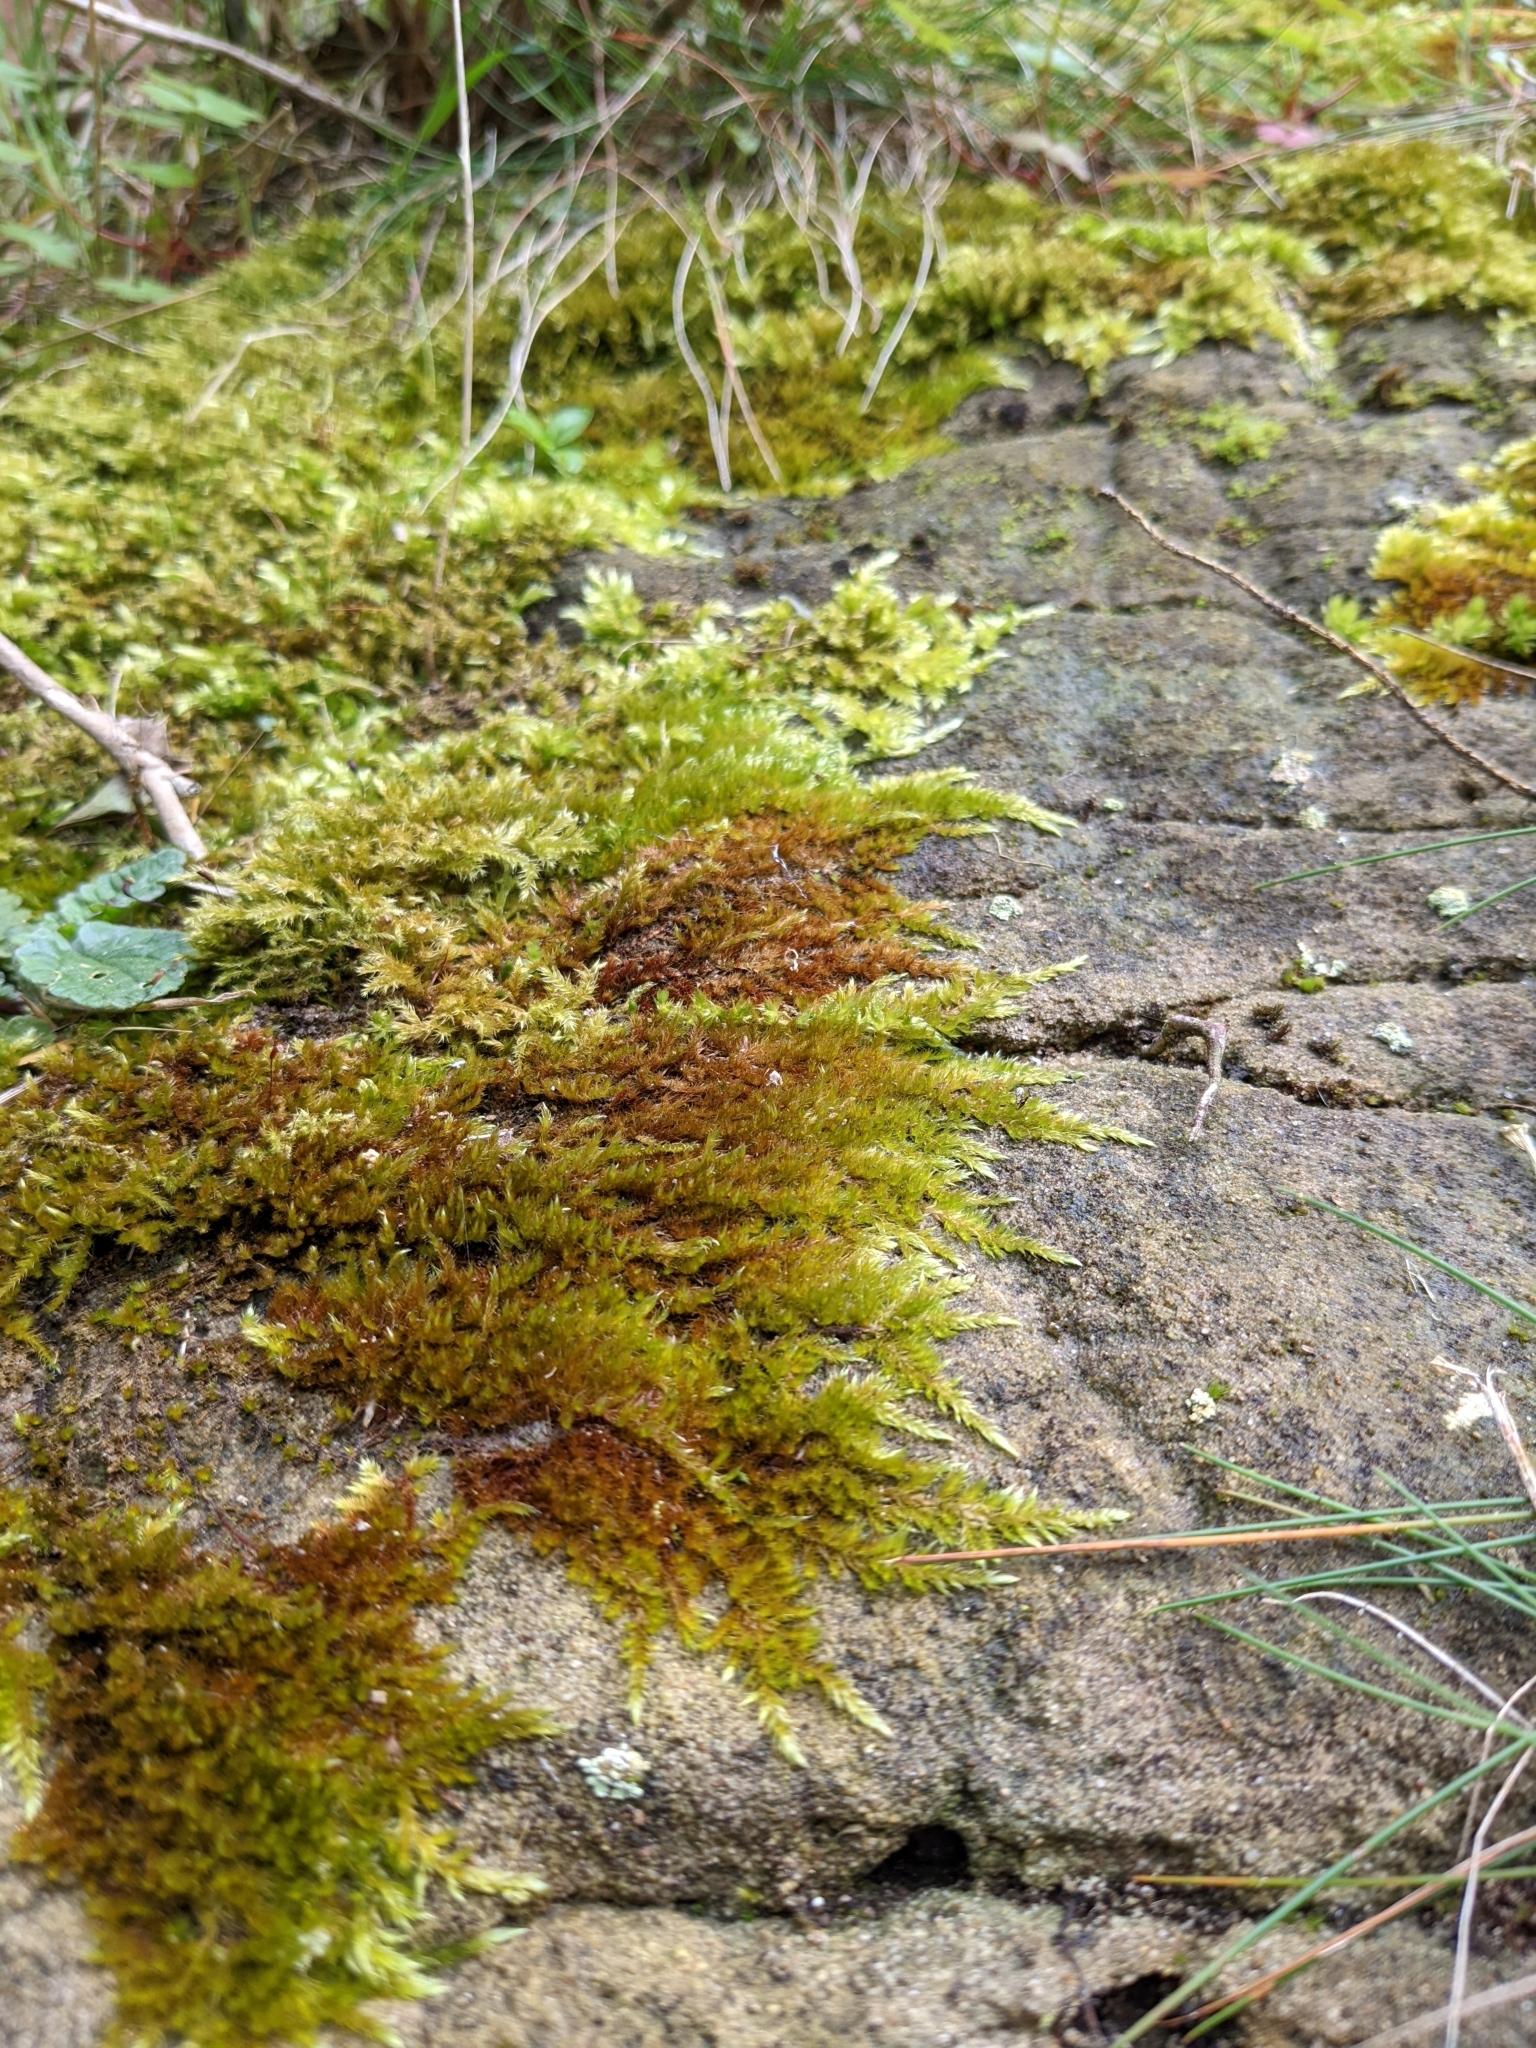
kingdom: Plantae
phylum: Bryophyta
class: Bryopsida
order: Hypnales
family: Hypnaceae
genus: Hypnum
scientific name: Hypnum cupressiforme
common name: Cypress-leaved plait-moss
